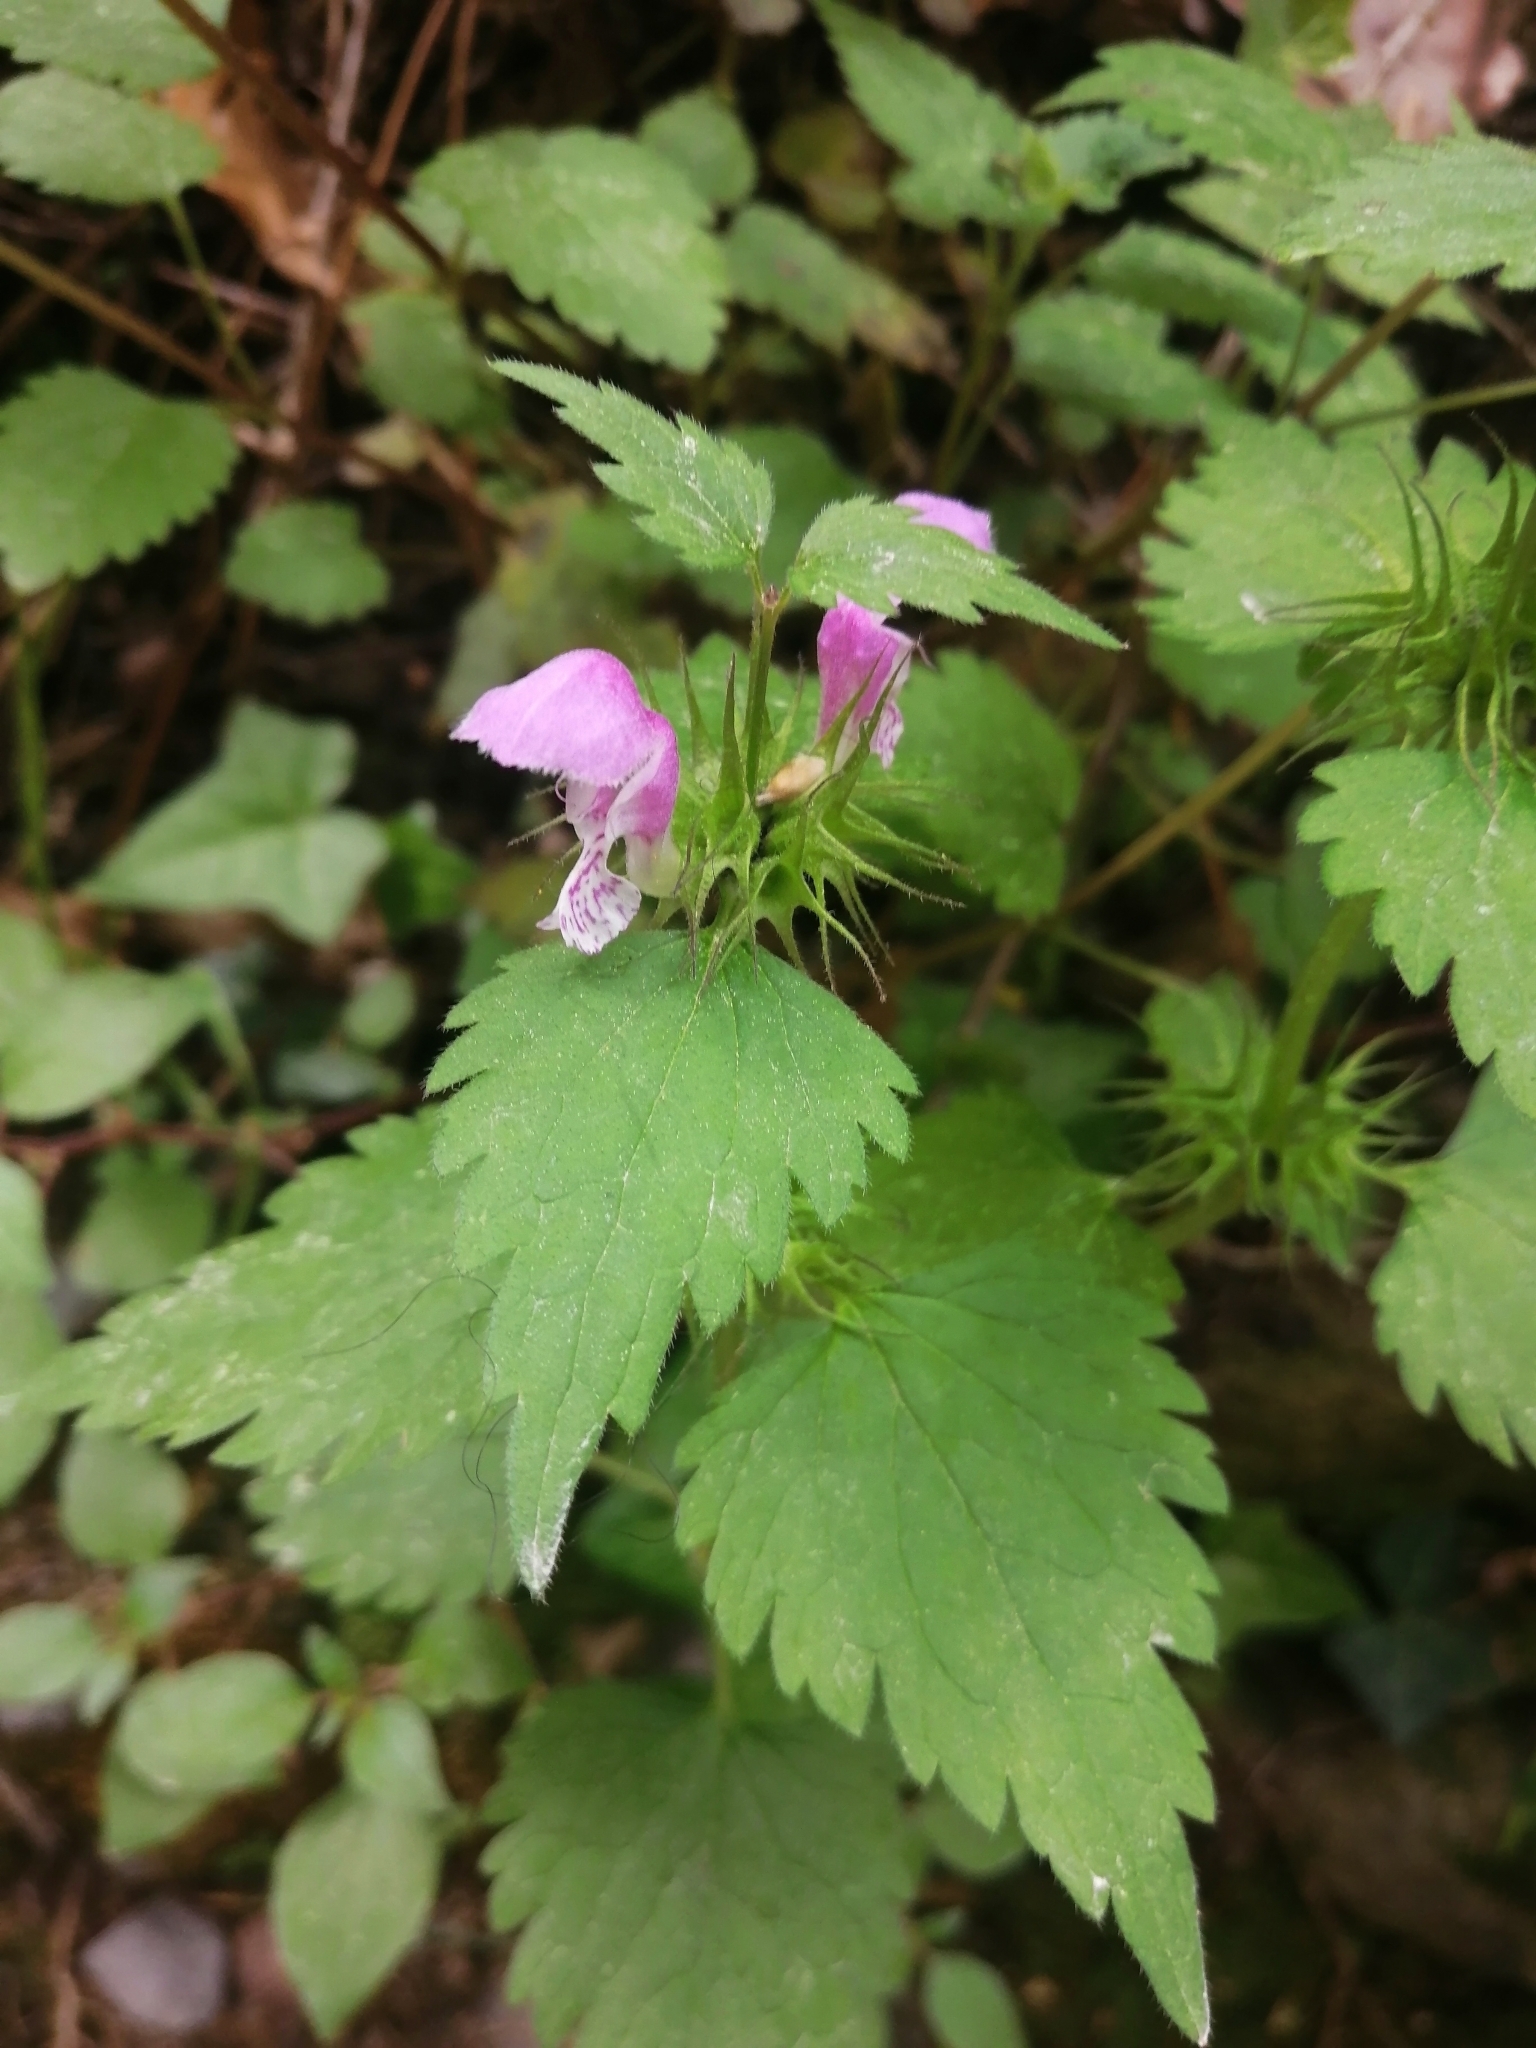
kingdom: Plantae
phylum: Tracheophyta
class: Magnoliopsida
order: Lamiales
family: Lamiaceae
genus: Lamium
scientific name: Lamium maculatum
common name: Spotted dead-nettle
